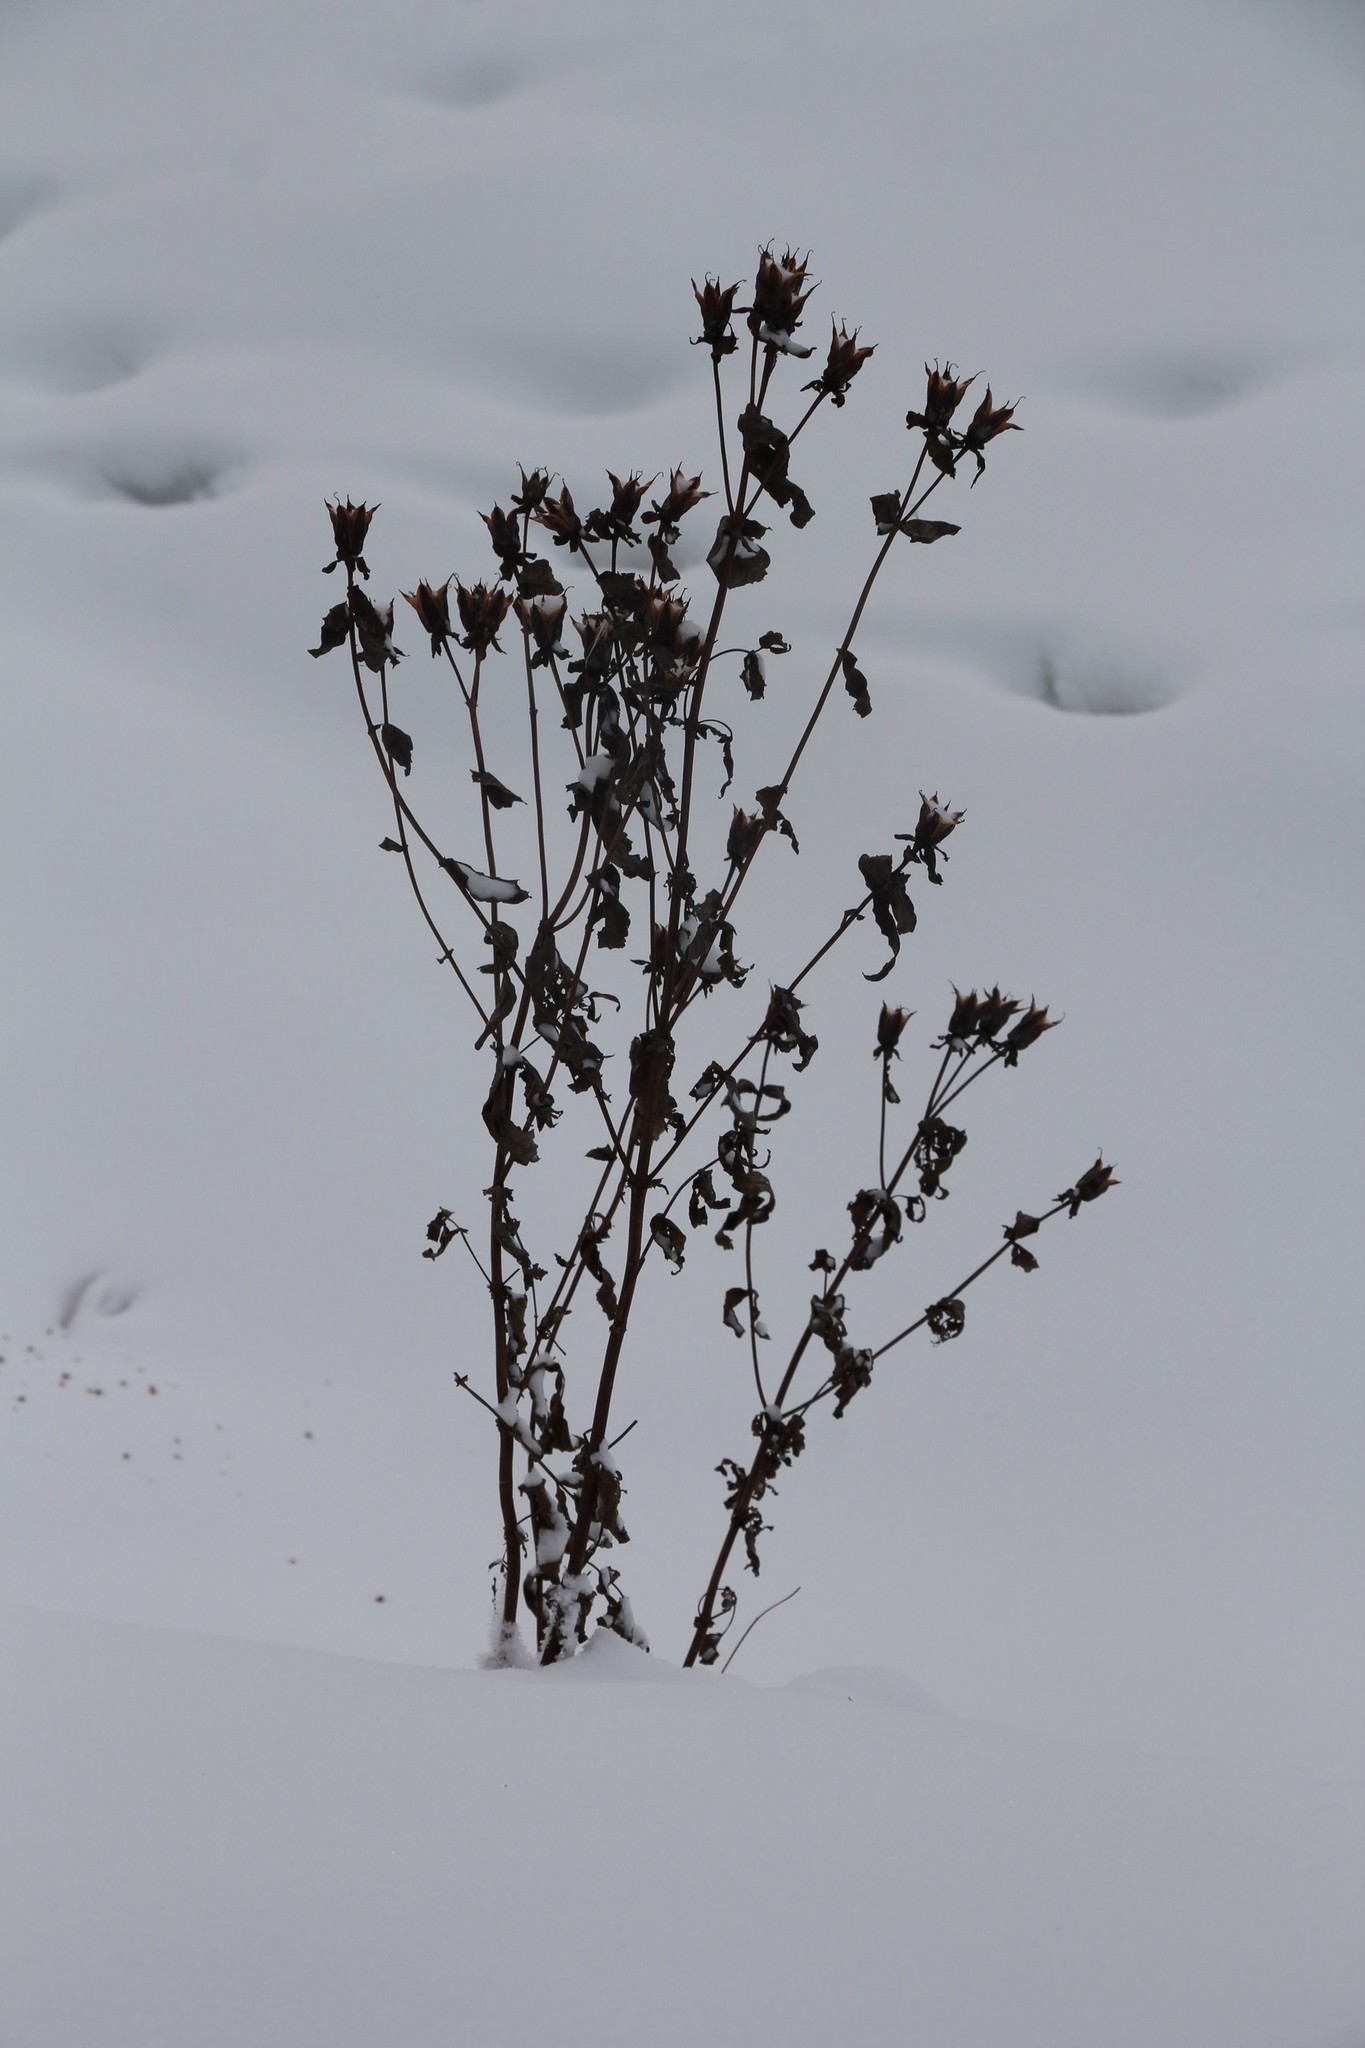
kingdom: Plantae
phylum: Tracheophyta
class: Magnoliopsida
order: Malpighiales
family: Hypericaceae
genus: Hypericum
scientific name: Hypericum ascyron
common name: Giant st. john's-wort
